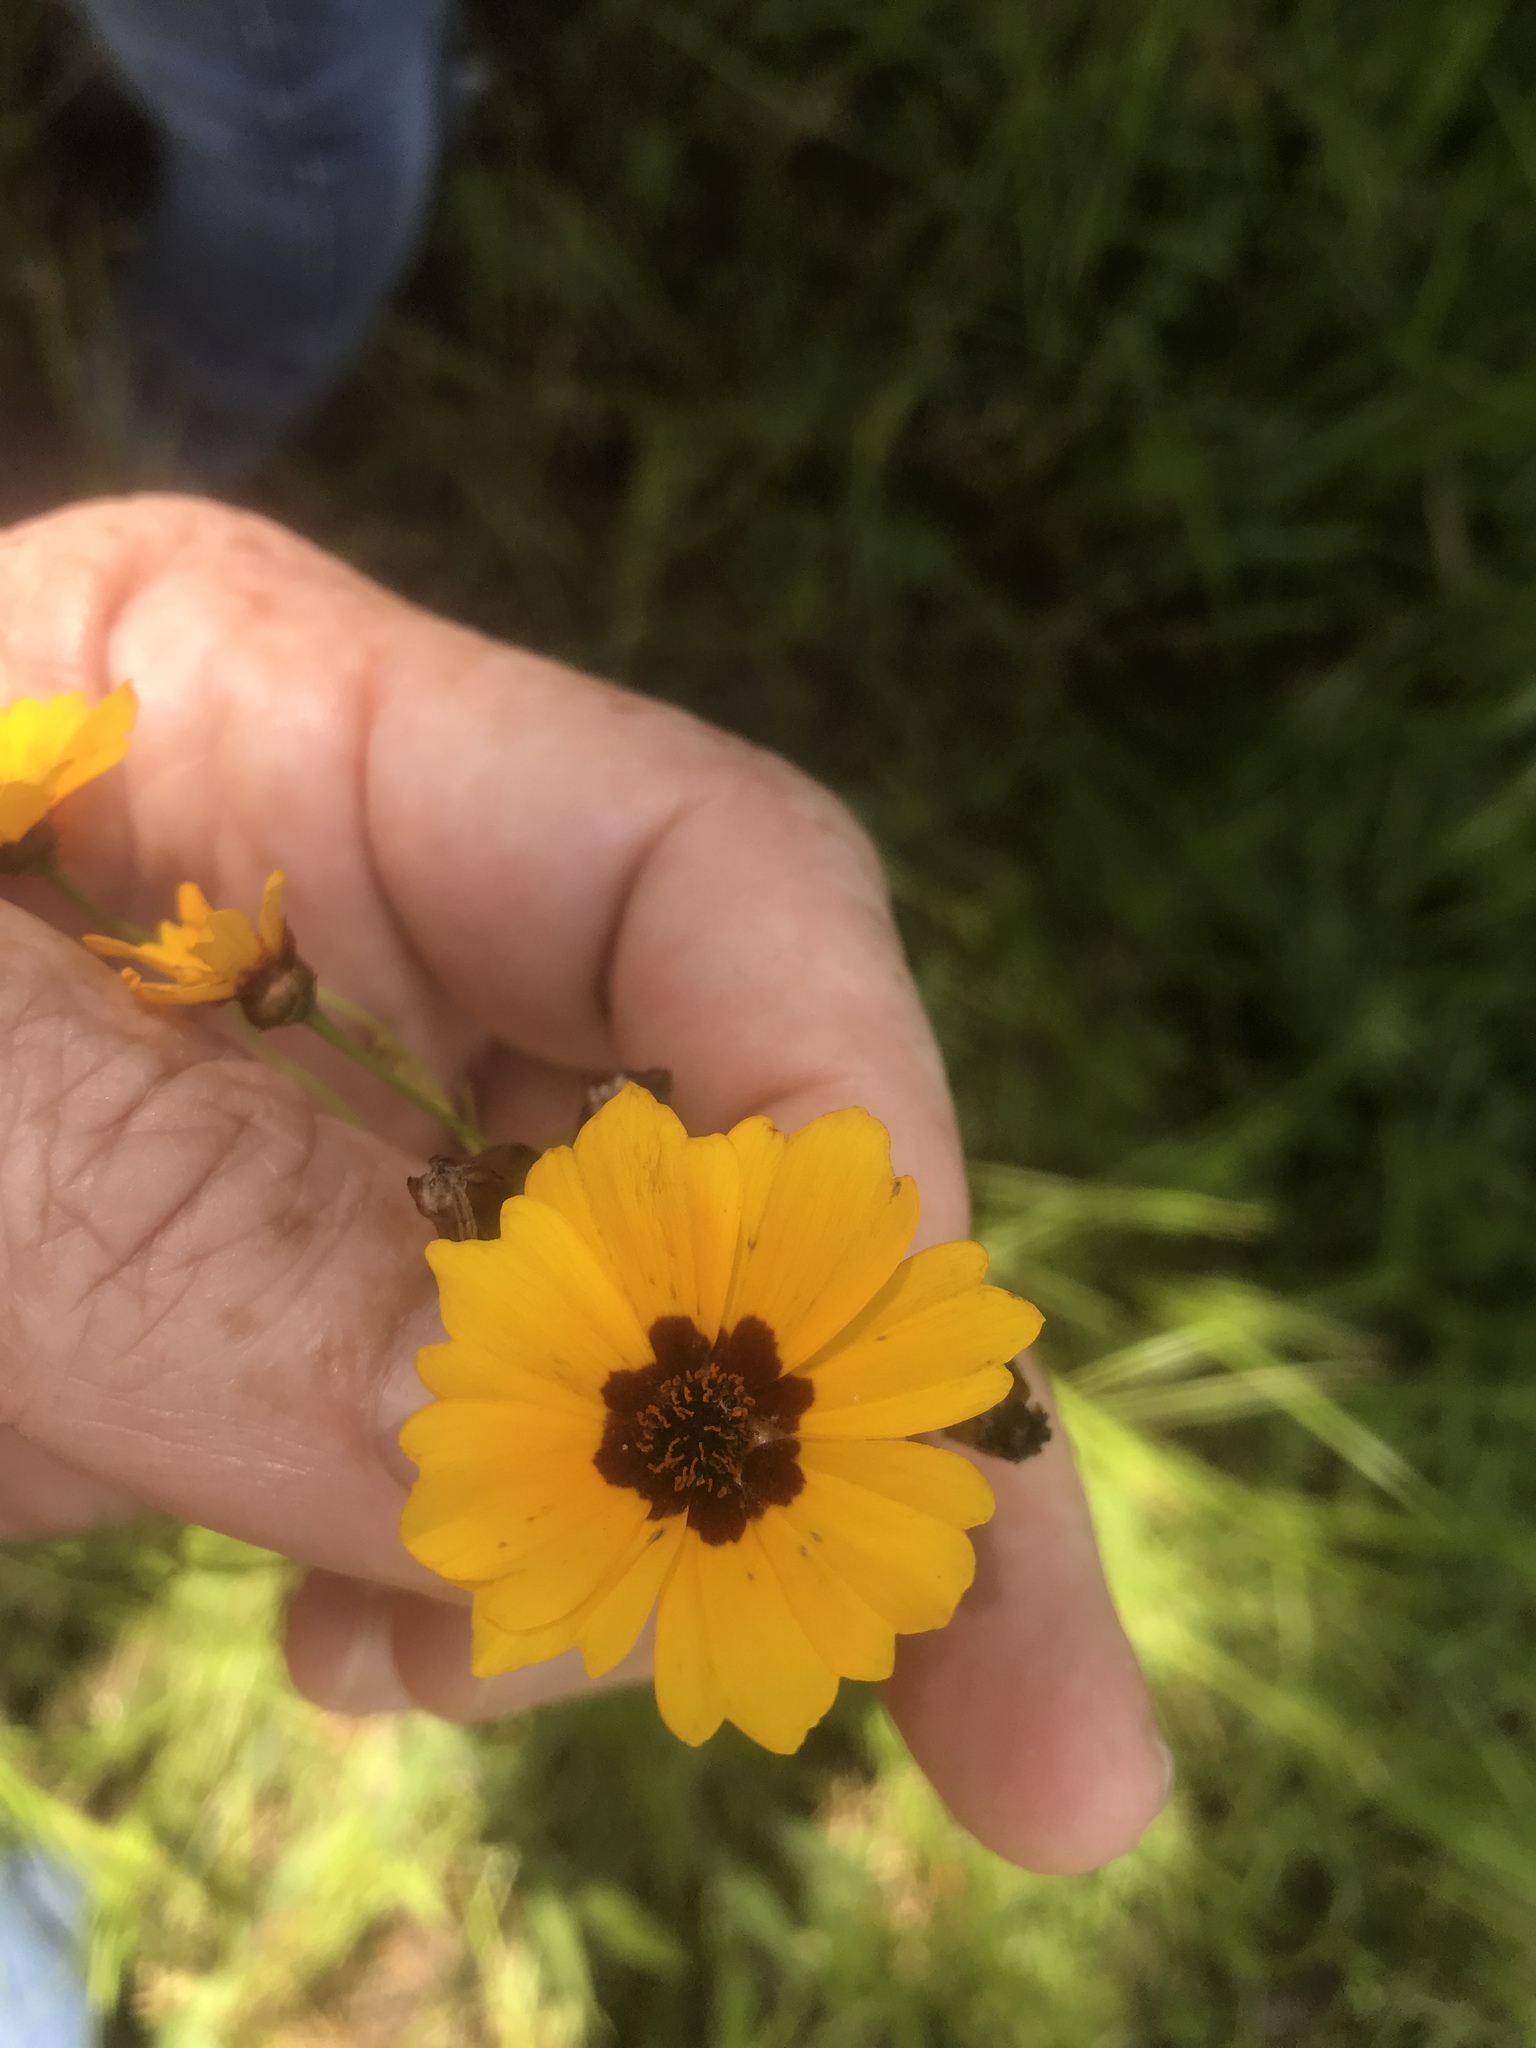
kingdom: Plantae
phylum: Tracheophyta
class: Magnoliopsida
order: Asterales
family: Asteraceae
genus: Coreopsis
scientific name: Coreopsis tinctoria
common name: Garden tickseed
